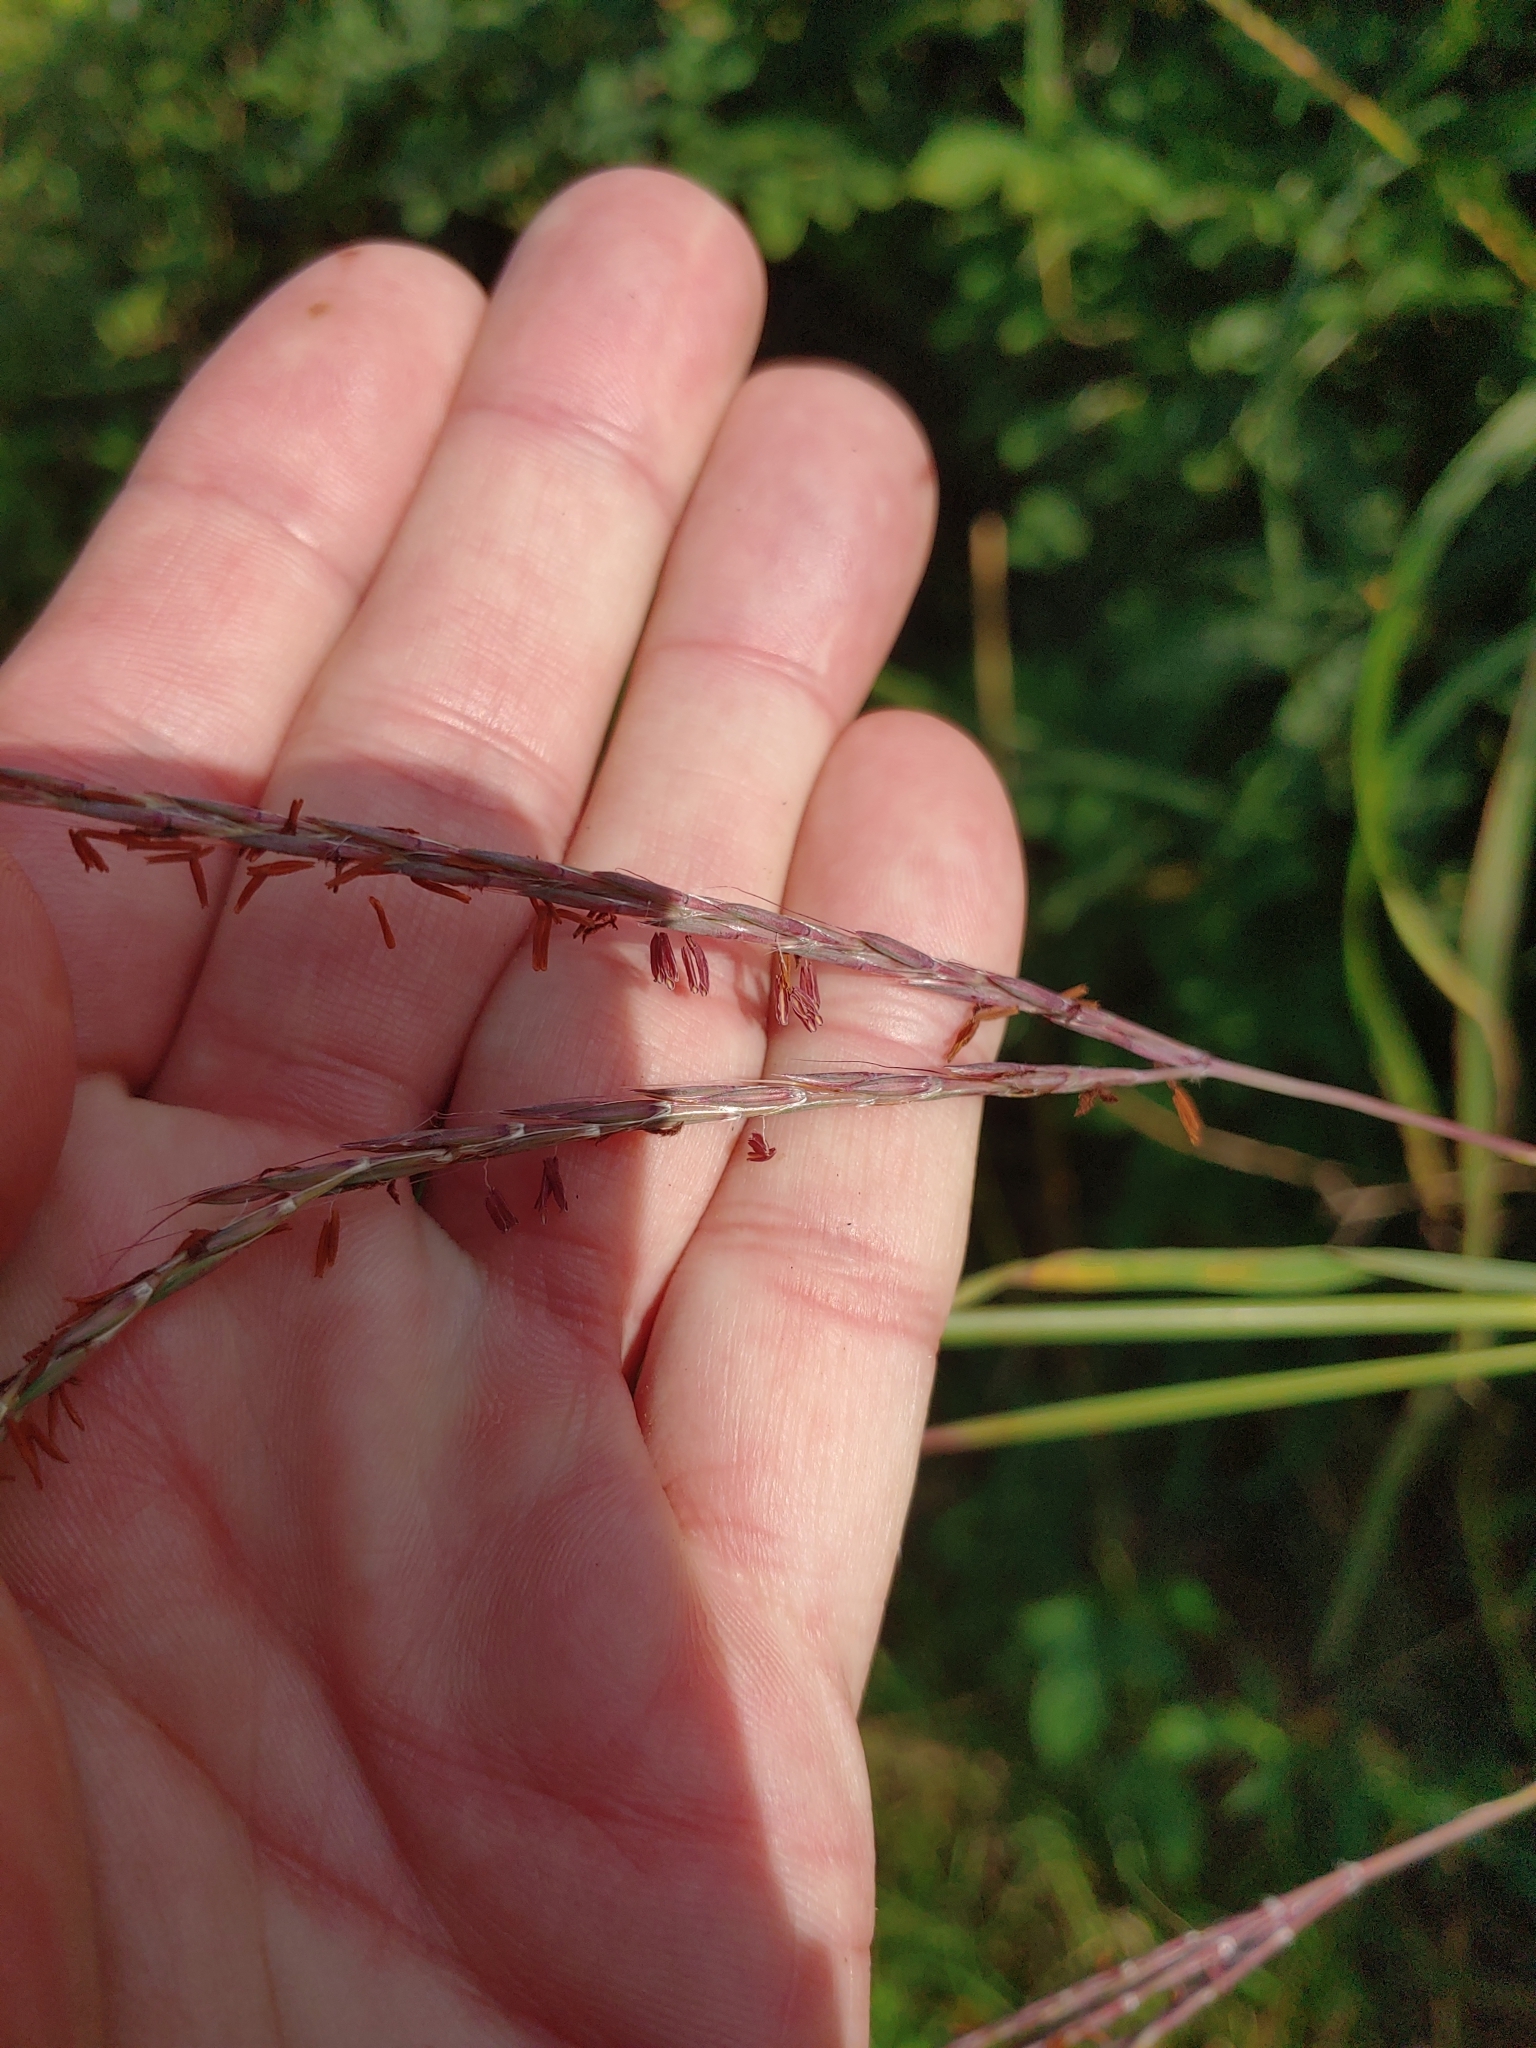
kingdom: Plantae
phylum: Tracheophyta
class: Liliopsida
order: Poales
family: Poaceae
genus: Andropogon
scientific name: Andropogon gerardi
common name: Big bluestem
